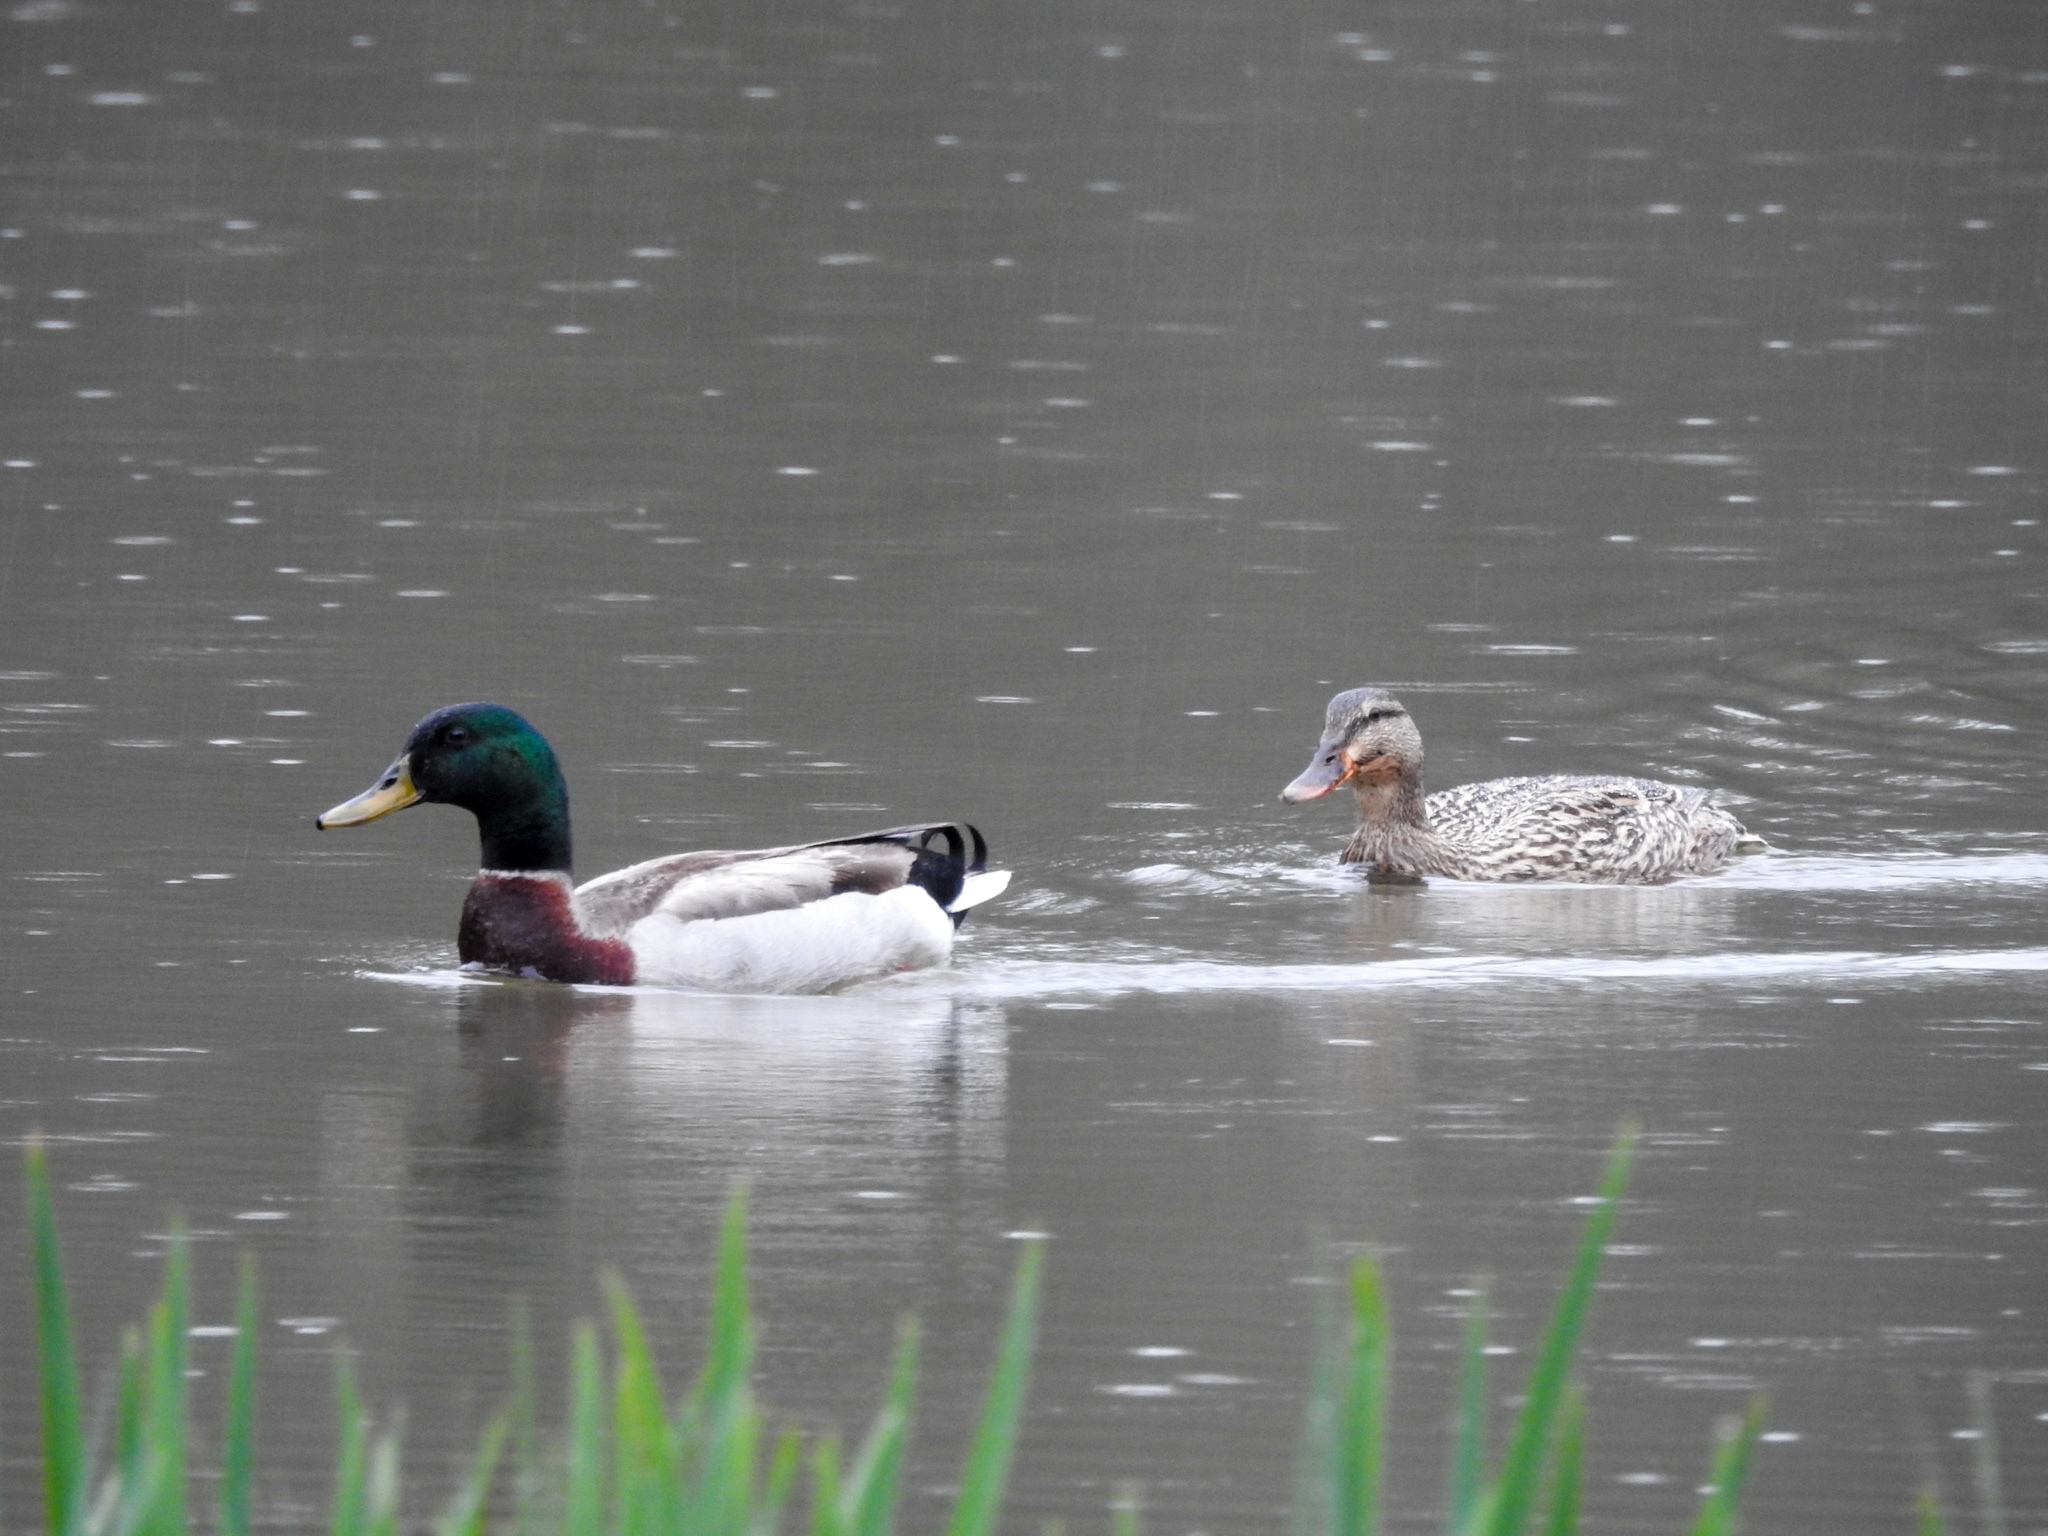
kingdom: Animalia
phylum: Chordata
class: Aves
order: Anseriformes
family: Anatidae
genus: Anas
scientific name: Anas platyrhynchos
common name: Mallard
